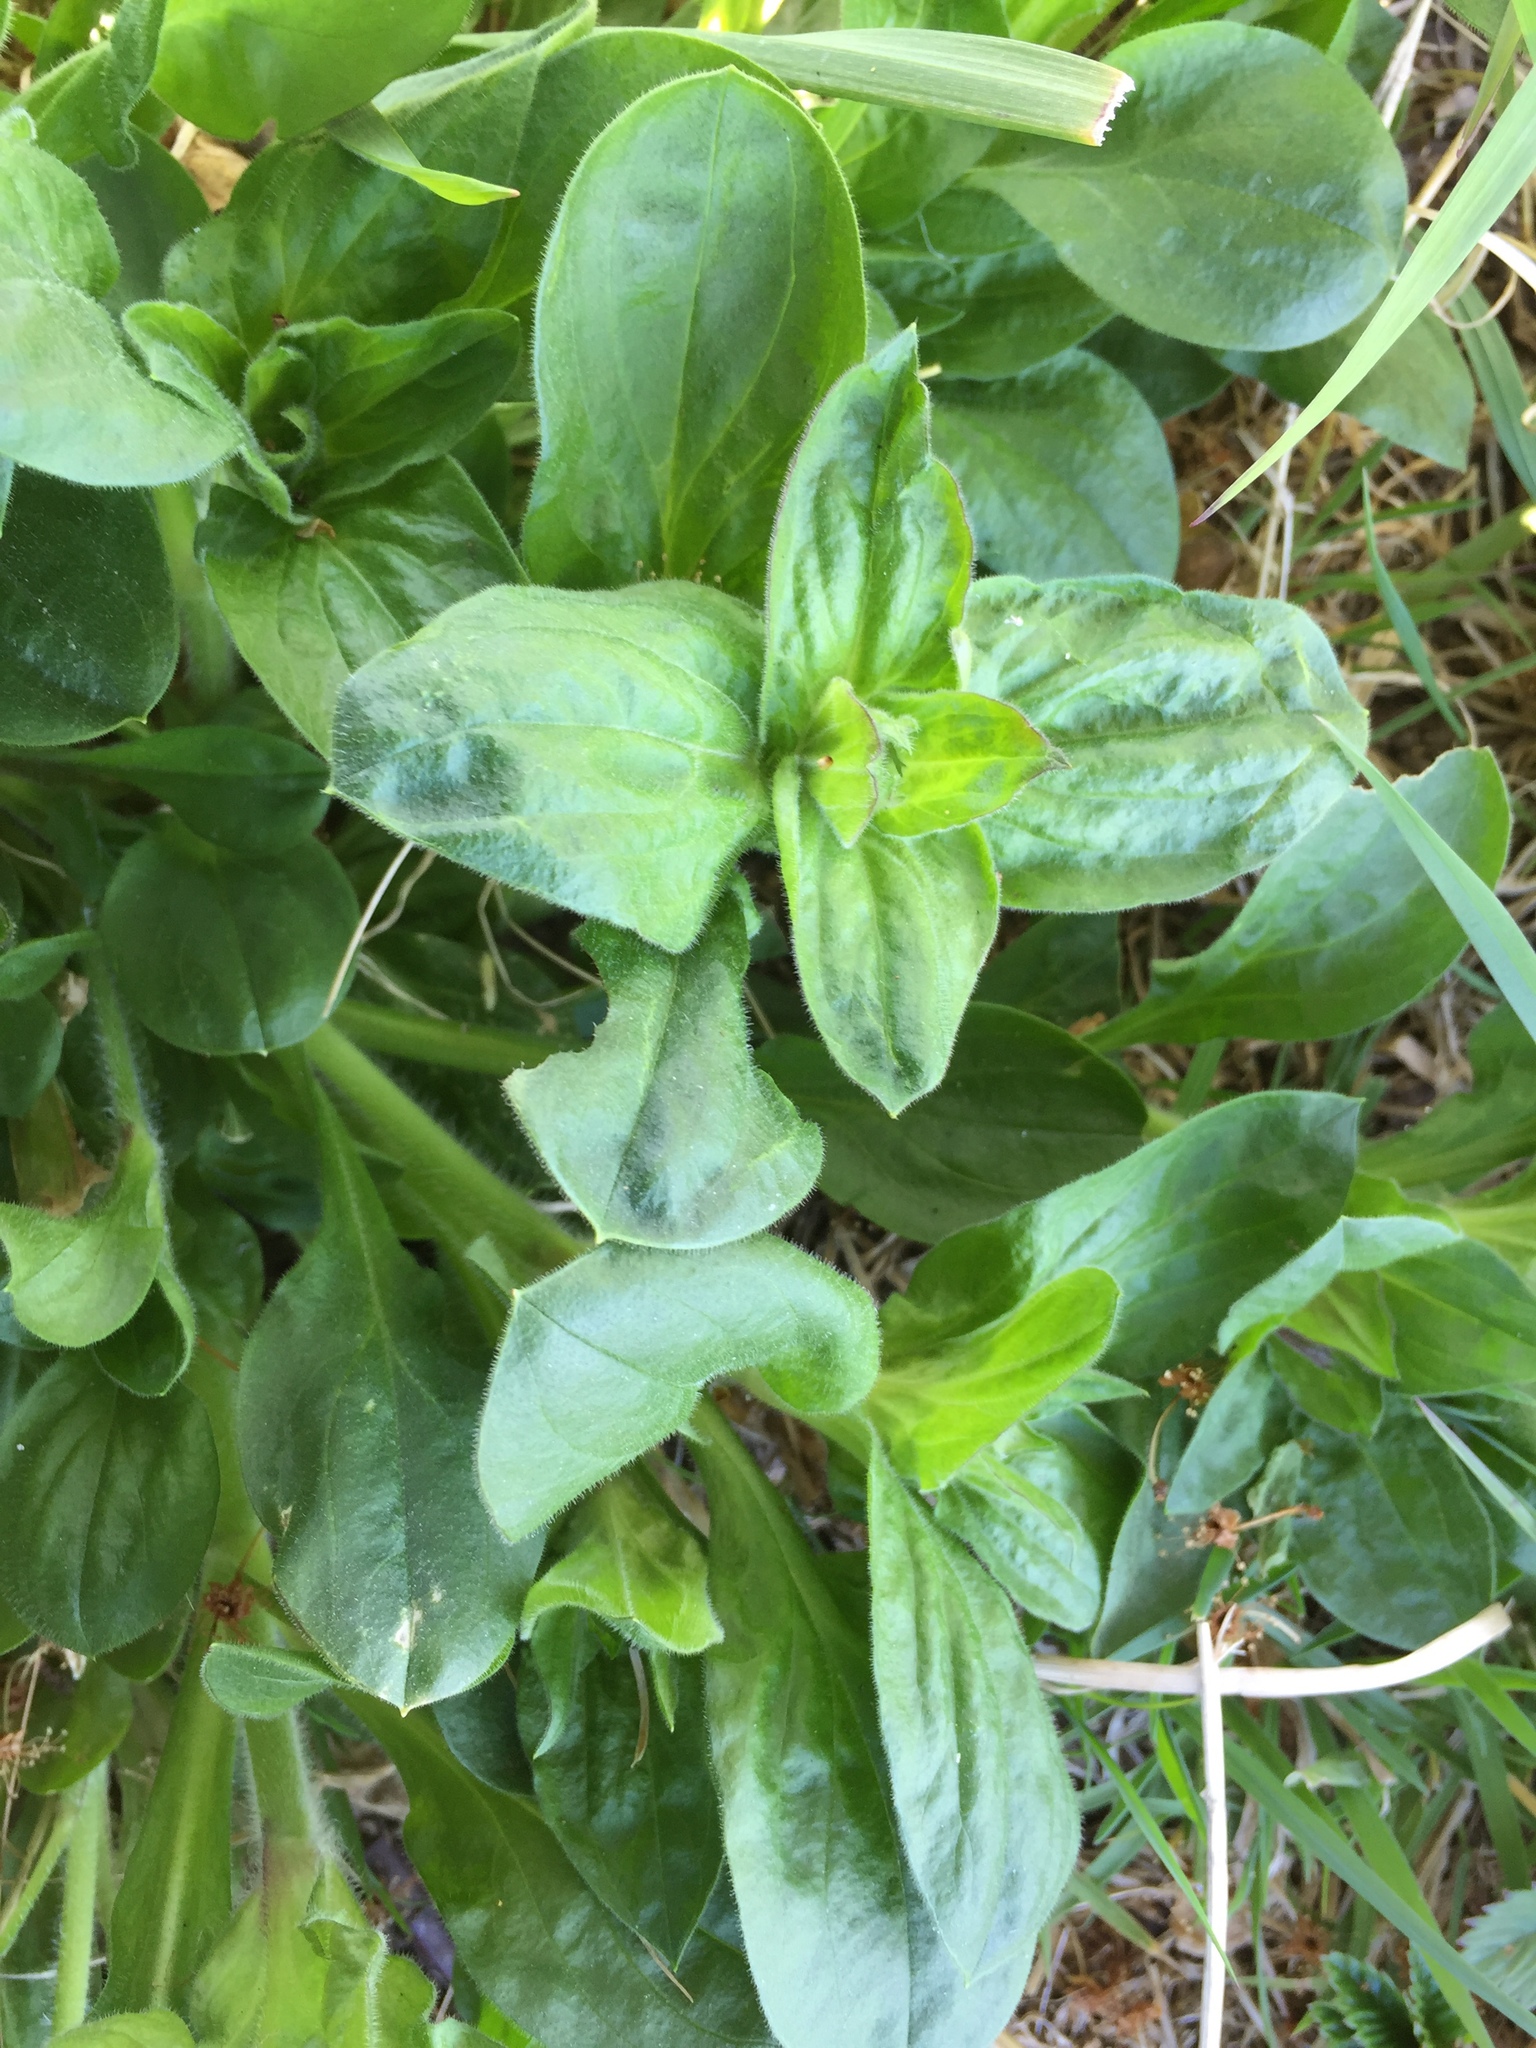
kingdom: Plantae
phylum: Tracheophyta
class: Magnoliopsida
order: Caryophyllales
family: Caryophyllaceae
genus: Silene
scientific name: Silene dioica
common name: Red campion
